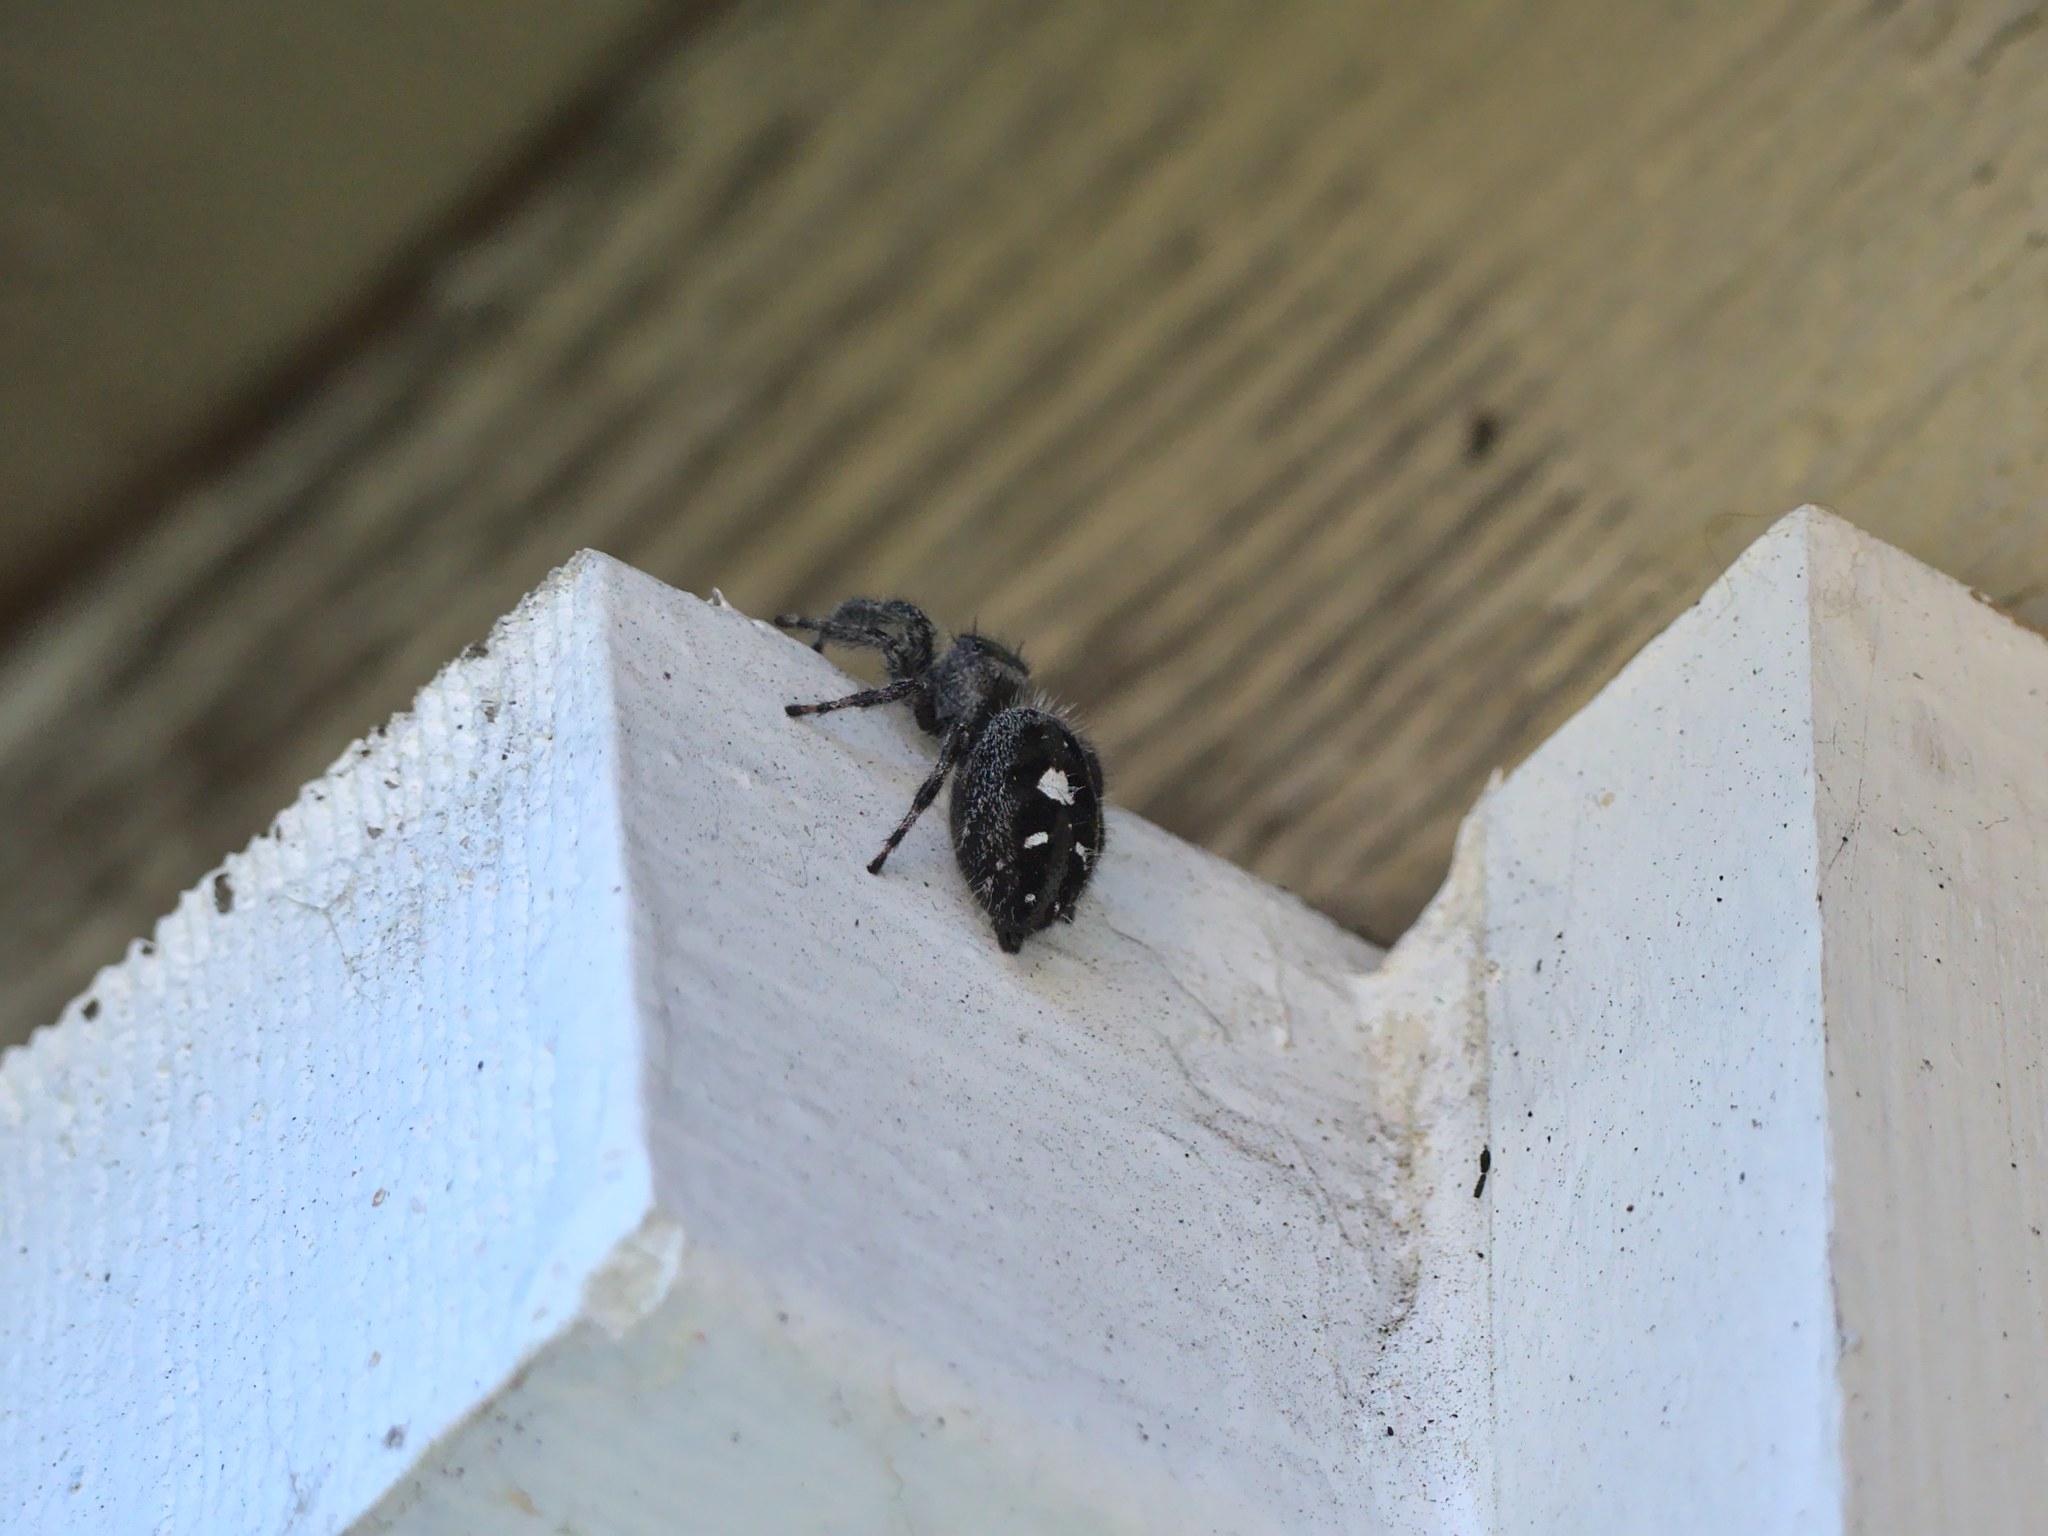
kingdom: Animalia
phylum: Arthropoda
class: Arachnida
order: Araneae
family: Salticidae
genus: Phidippus
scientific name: Phidippus audax
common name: Bold jumper
